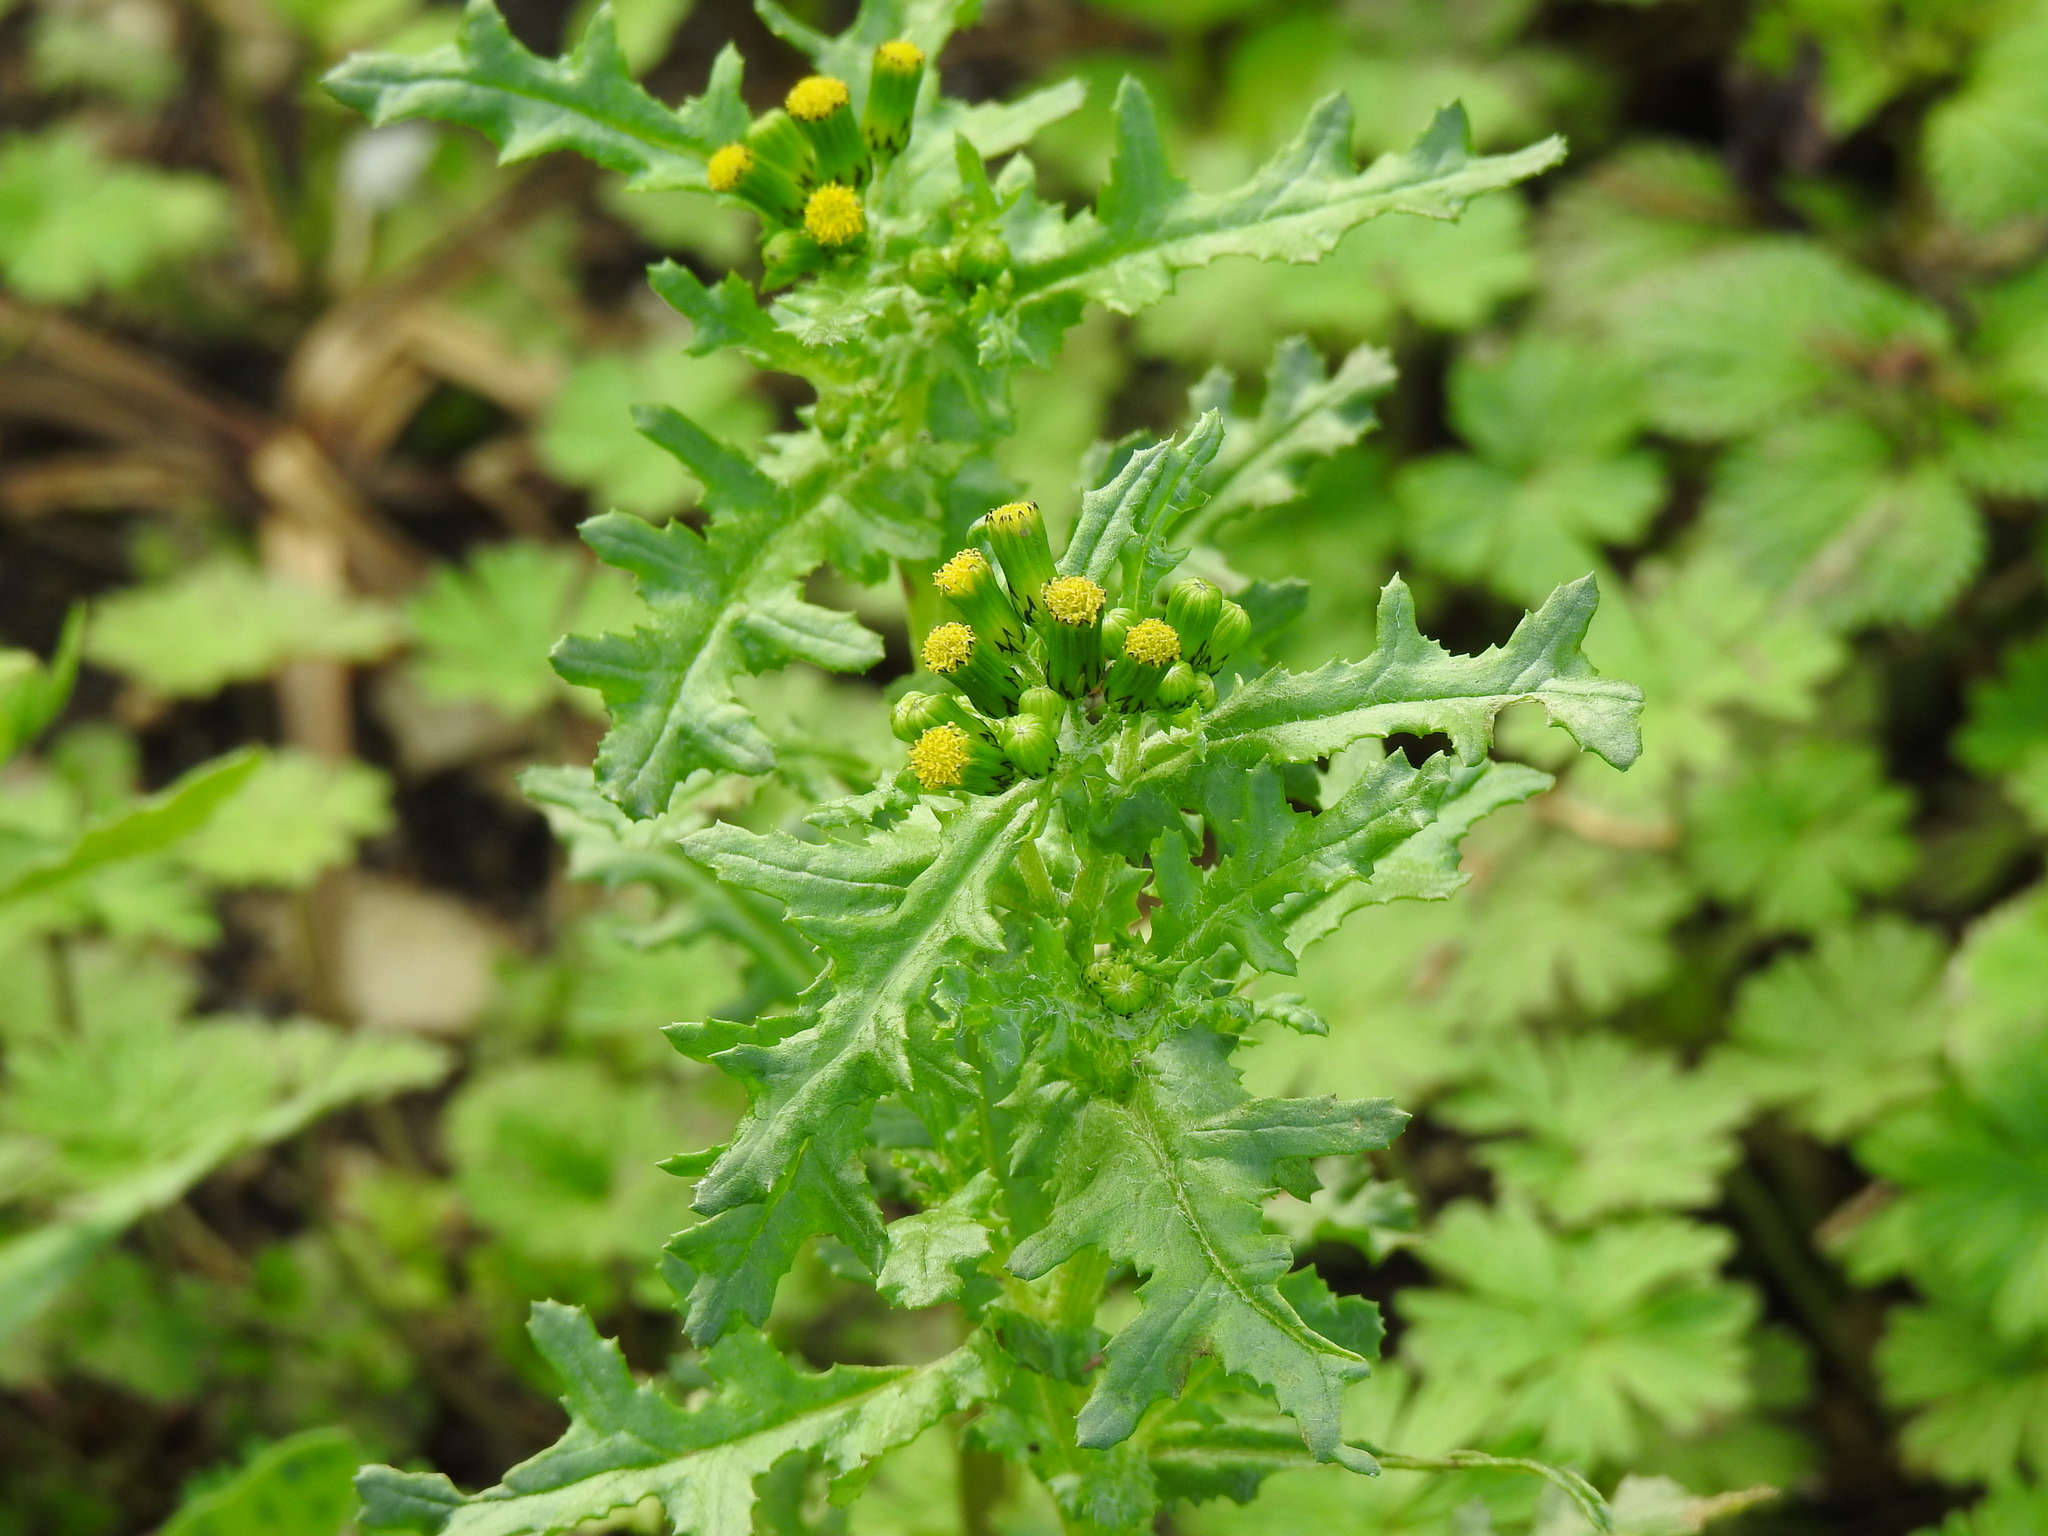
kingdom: Plantae
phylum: Tracheophyta
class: Magnoliopsida
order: Asterales
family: Asteraceae
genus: Senecio
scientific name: Senecio vulgaris
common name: Old-man-in-the-spring
